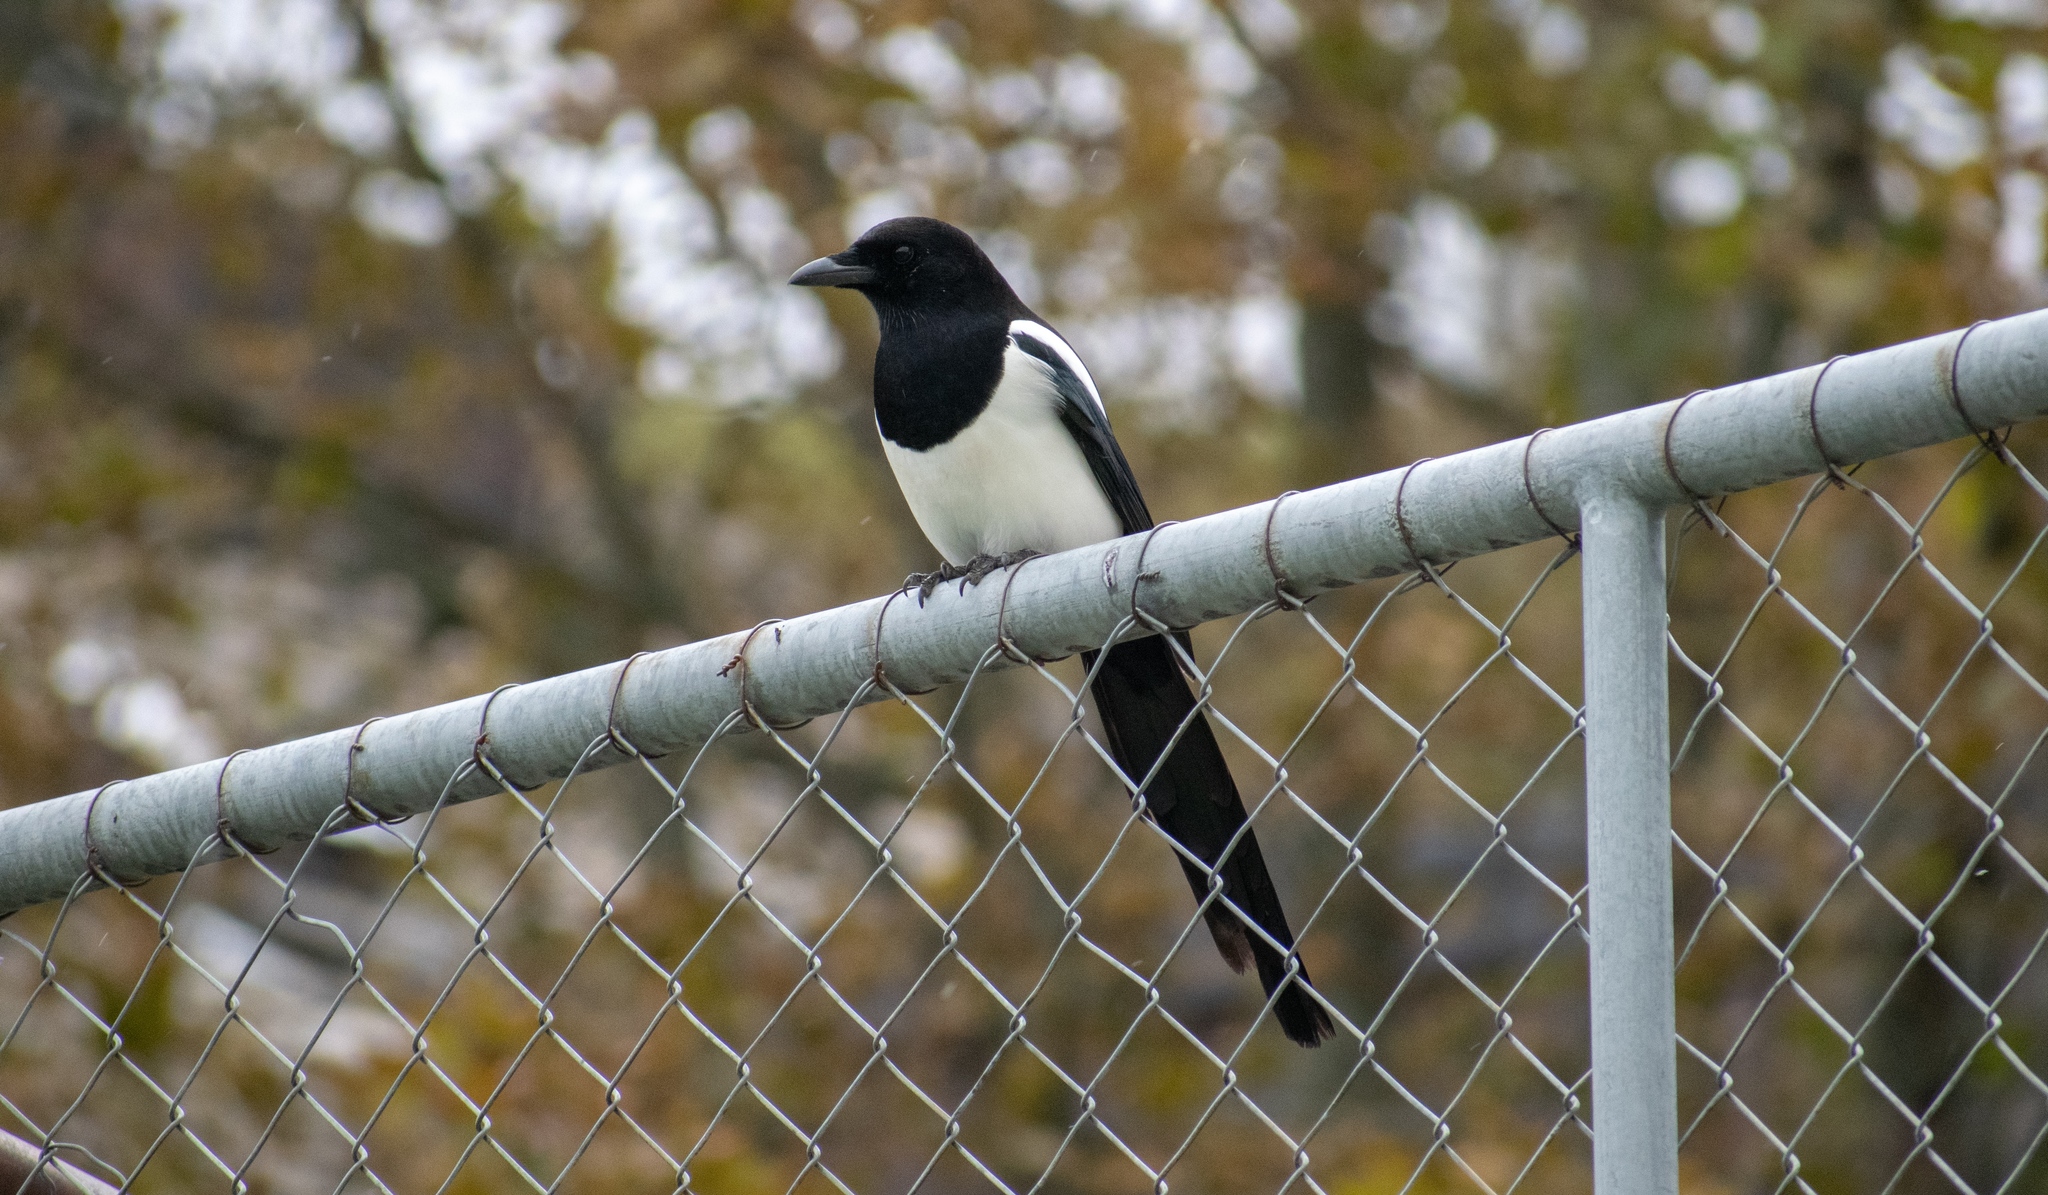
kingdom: Animalia
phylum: Chordata
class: Aves
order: Passeriformes
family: Corvidae
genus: Pica
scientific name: Pica pica
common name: Eurasian magpie
